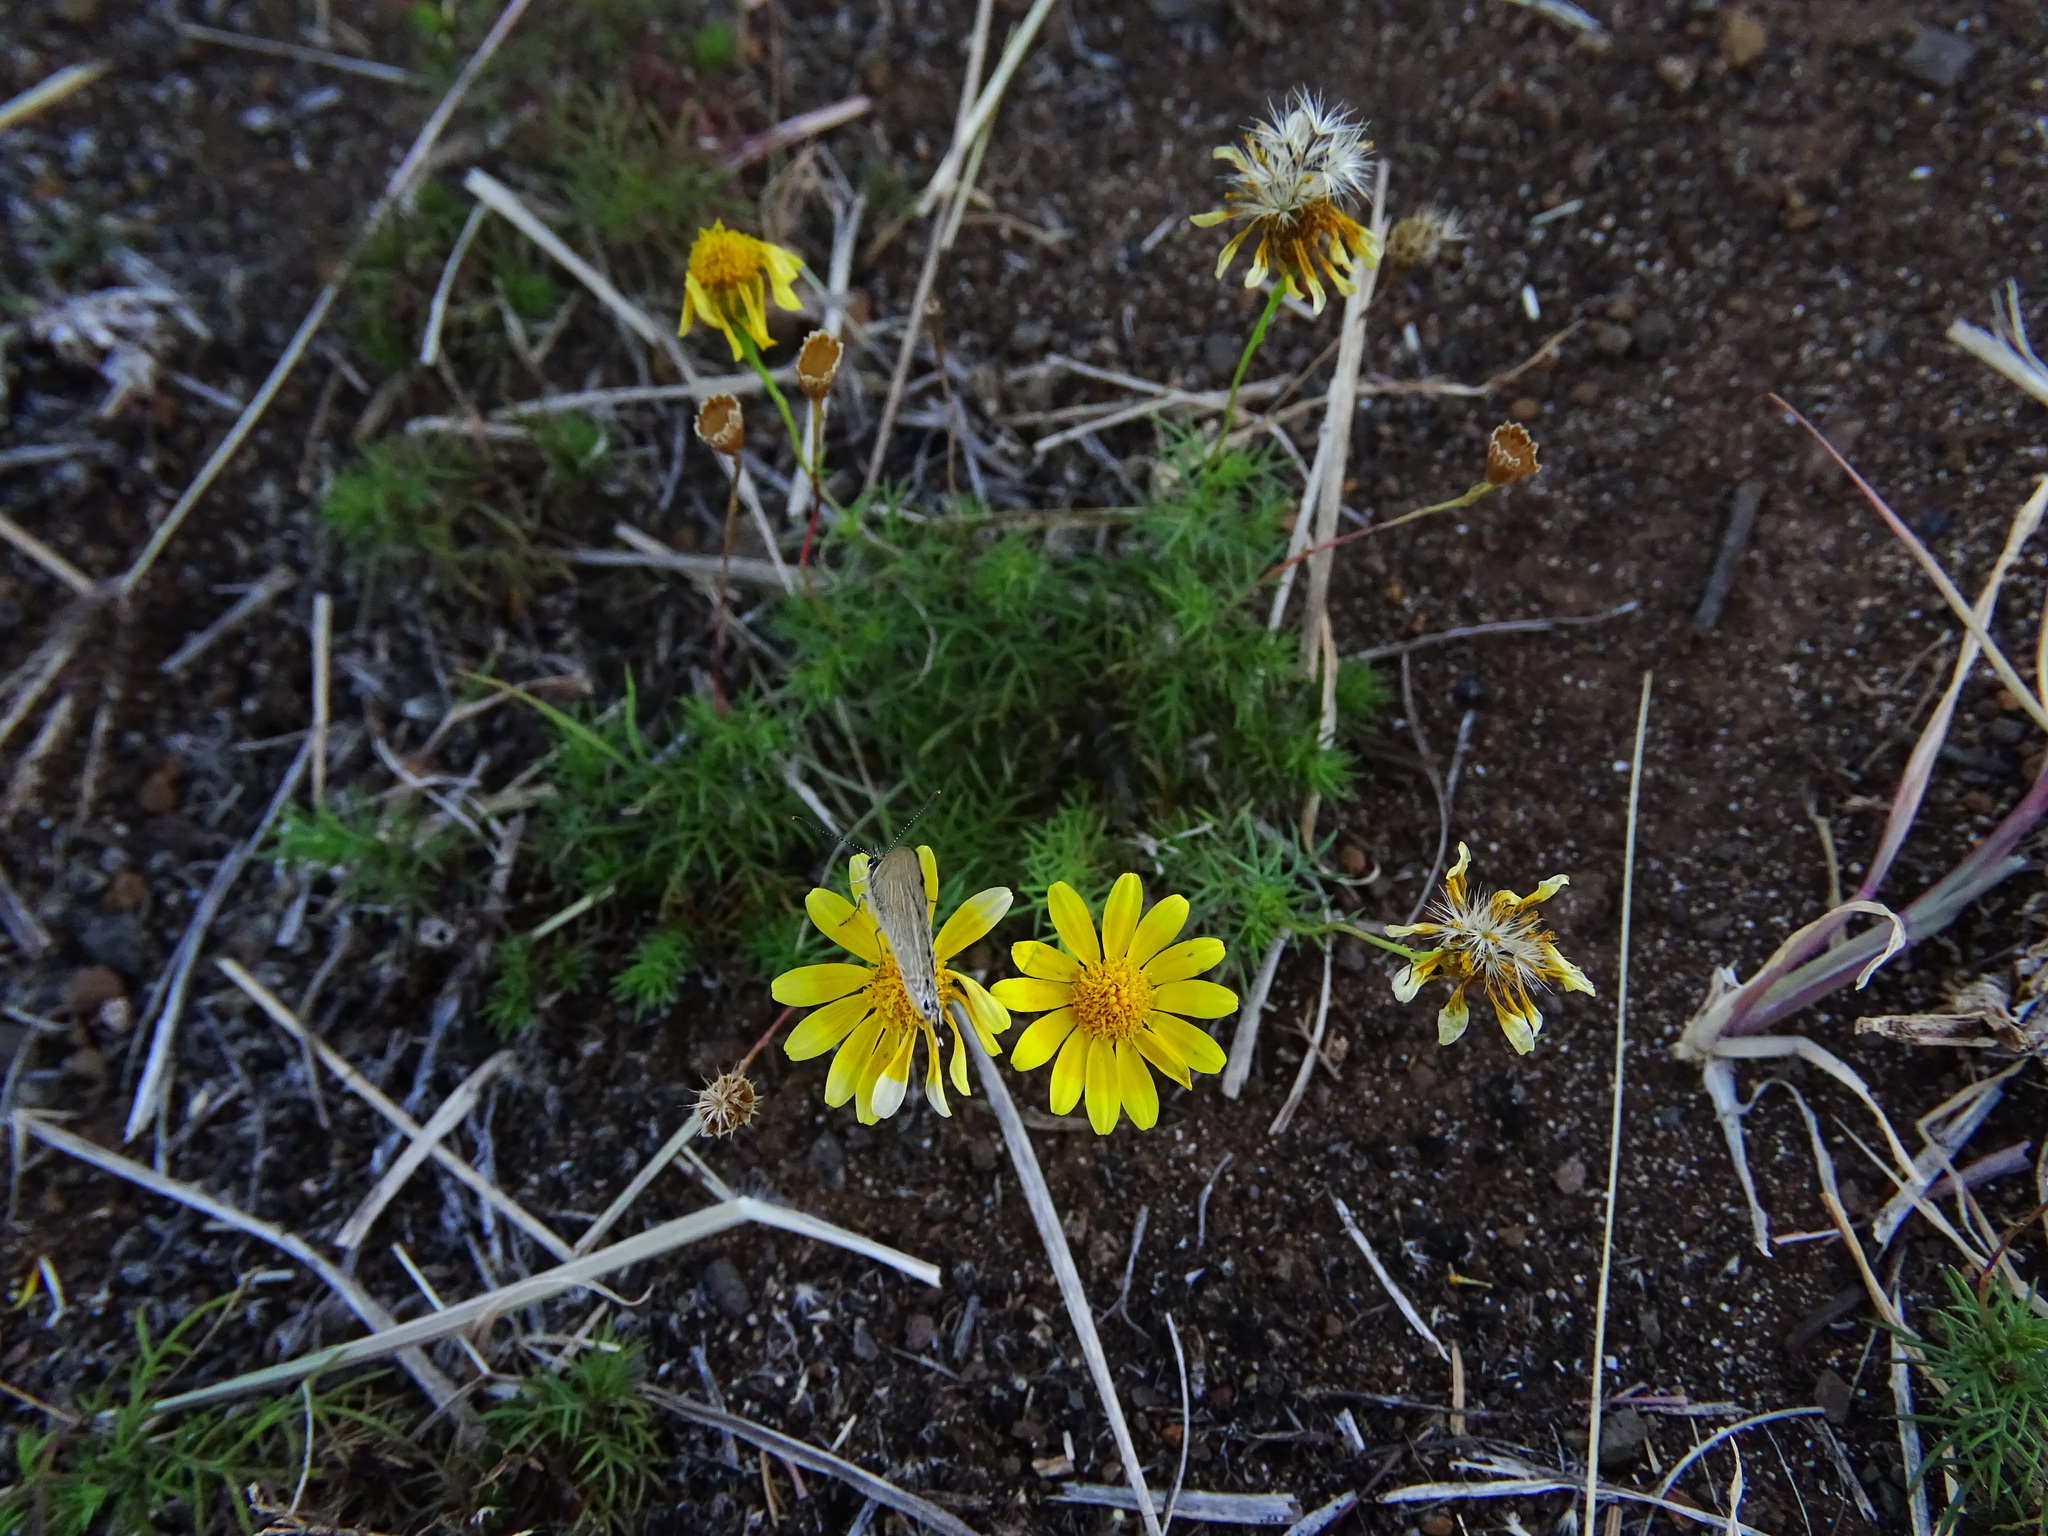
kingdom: Plantae
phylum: Tracheophyta
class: Magnoliopsida
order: Asterales
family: Asteraceae
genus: Thymophylla
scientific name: Thymophylla tenuiloba
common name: Dahlberg's daisy
